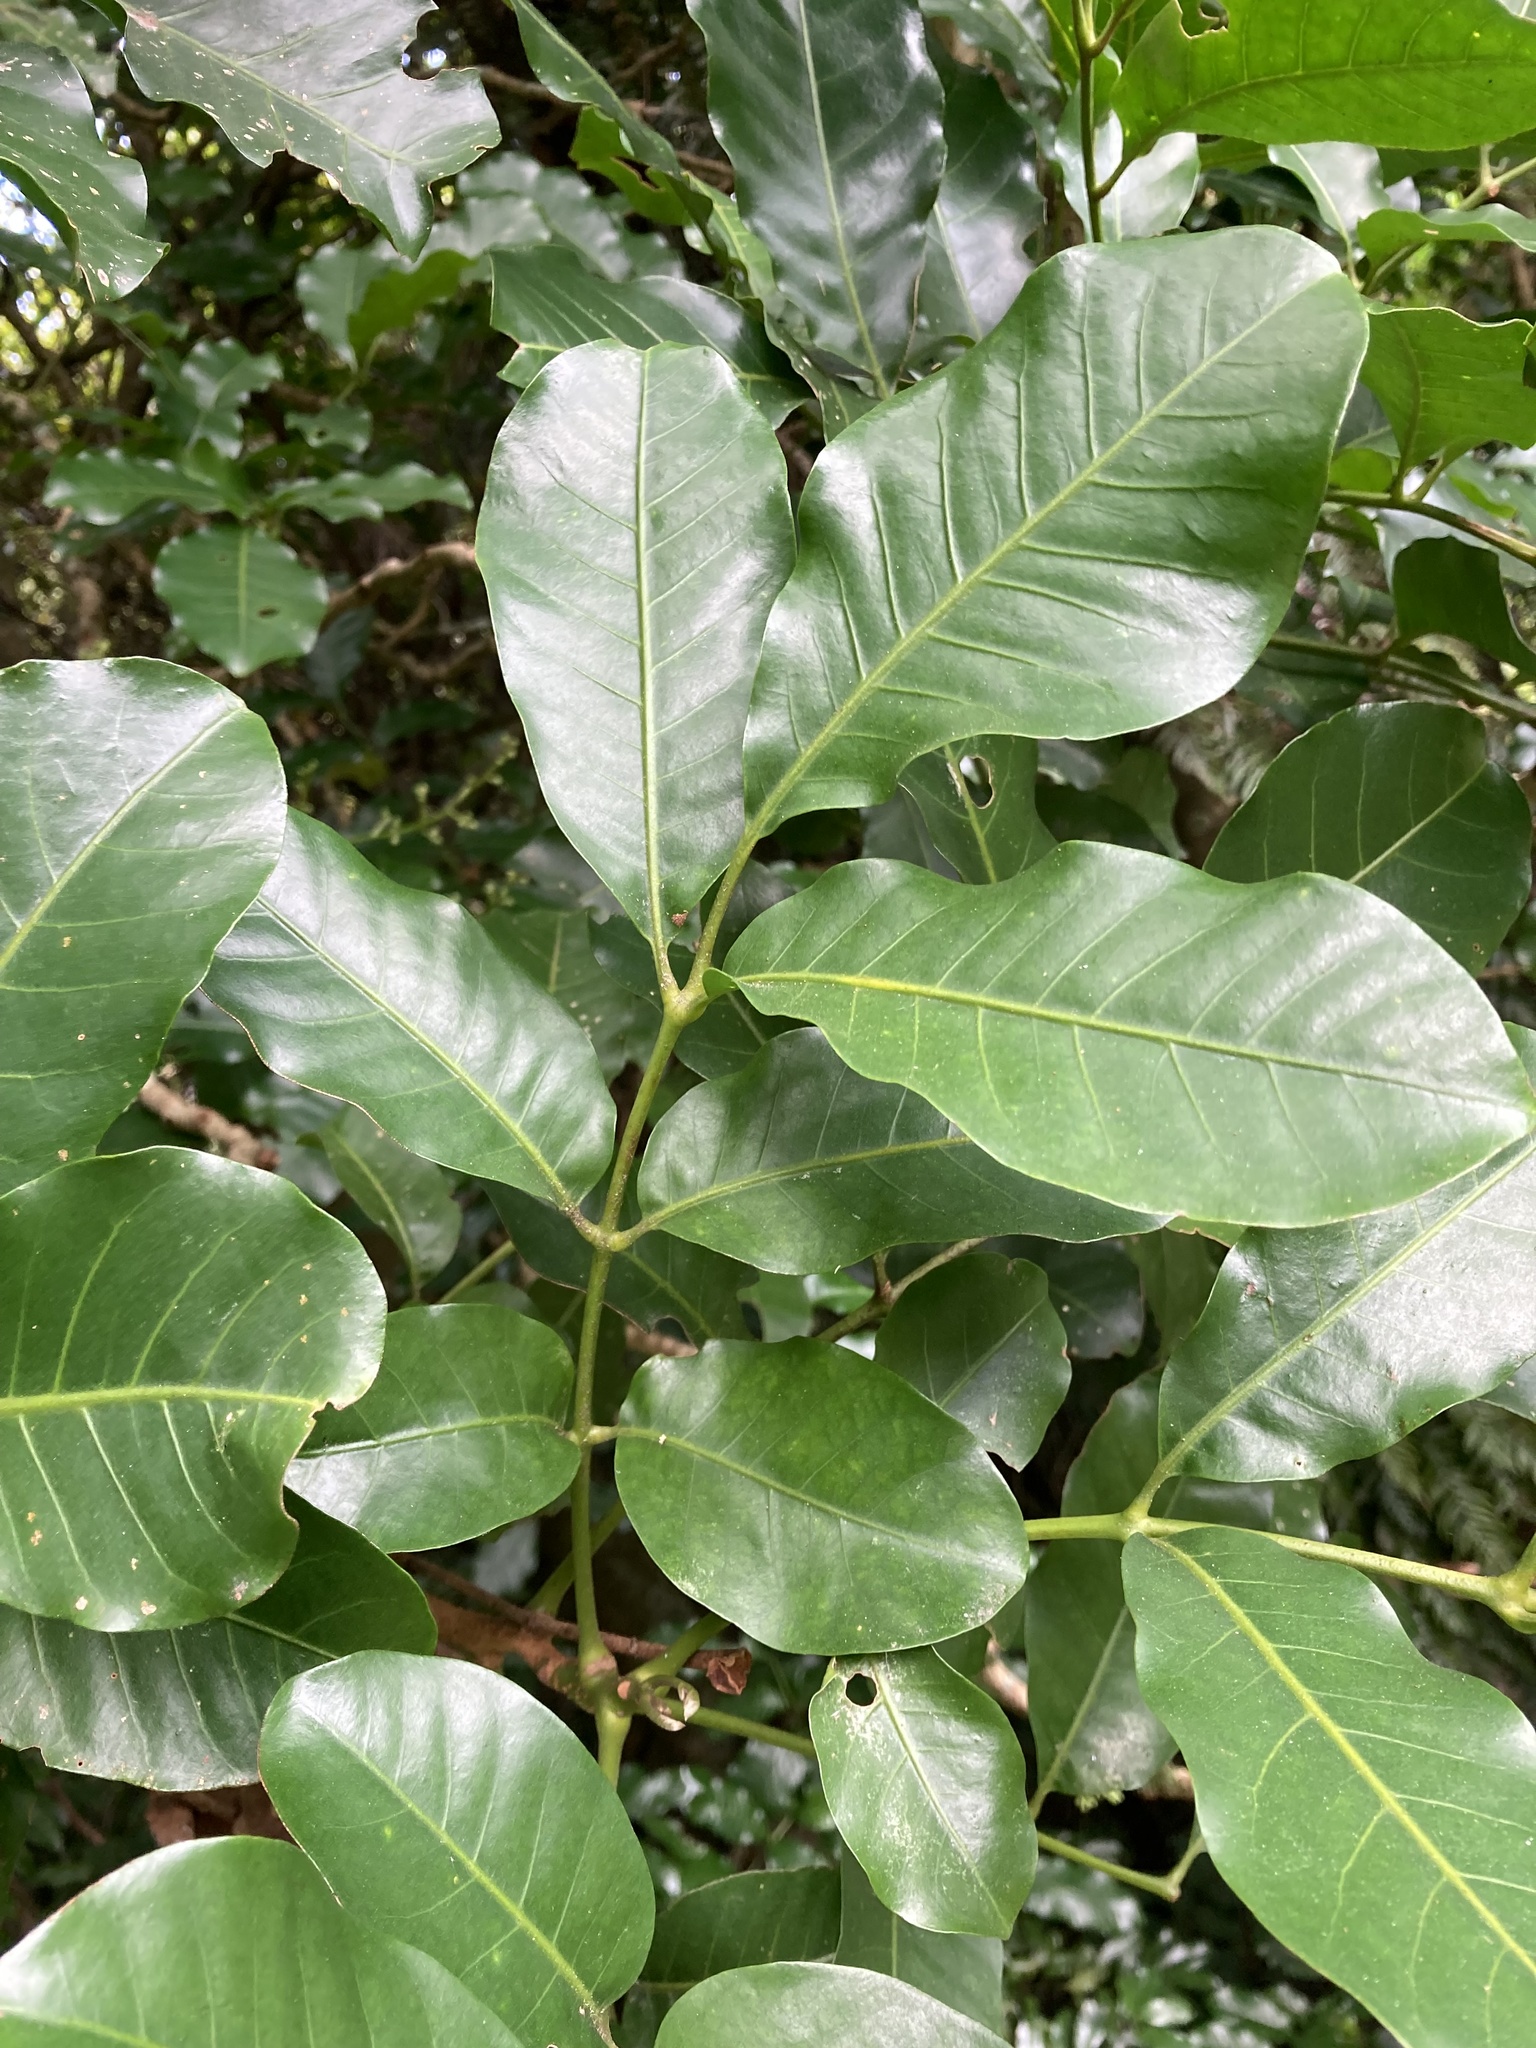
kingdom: Plantae
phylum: Tracheophyta
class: Magnoliopsida
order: Sapindales
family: Meliaceae
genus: Didymocheton
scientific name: Didymocheton spectabilis
